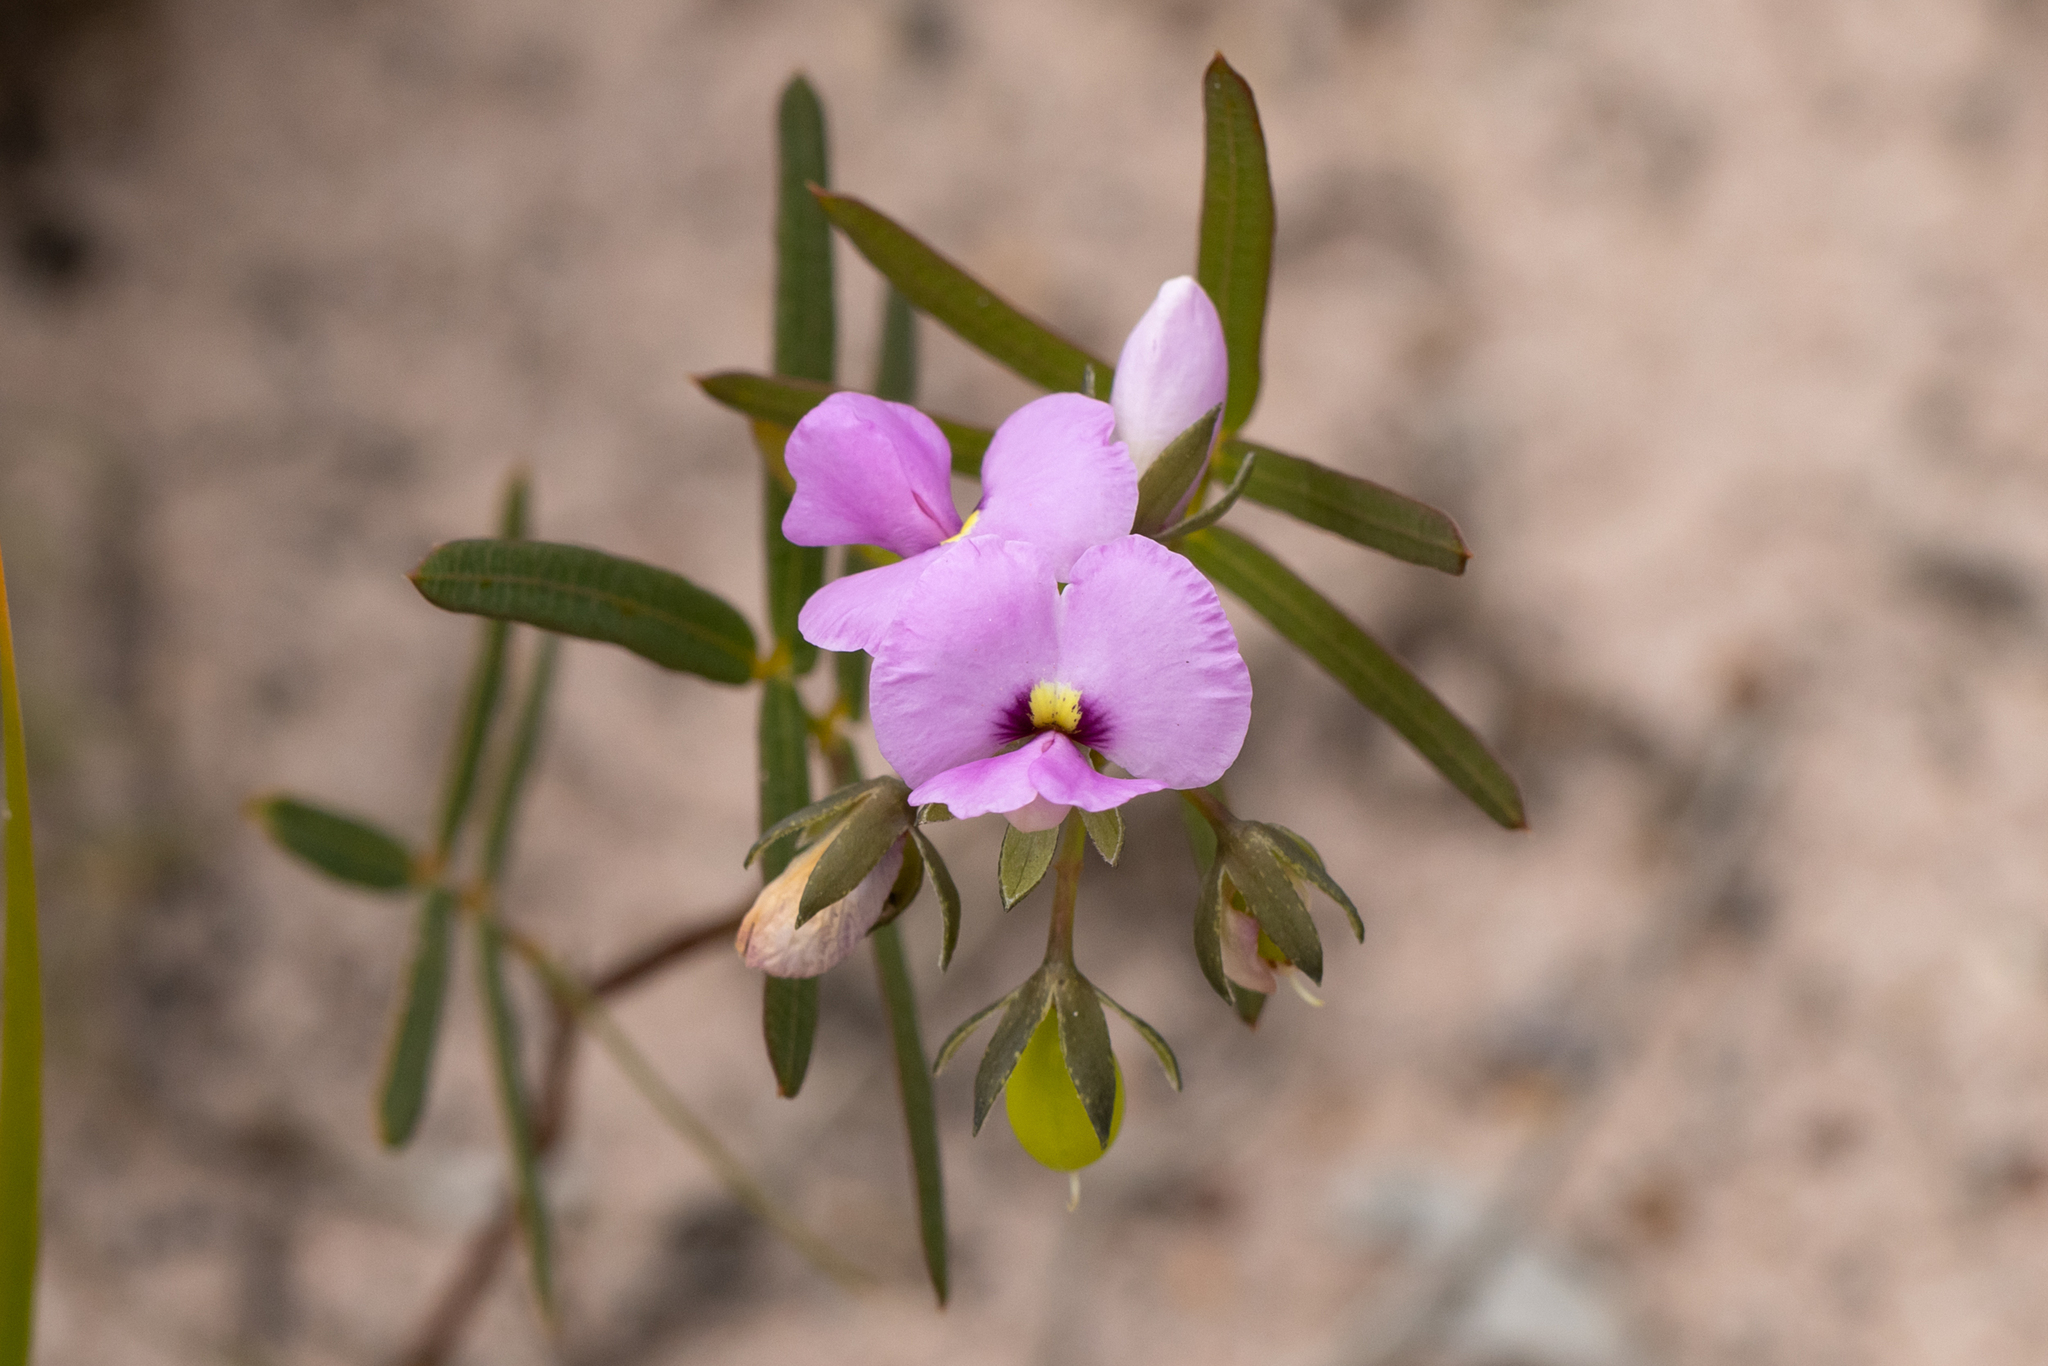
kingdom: Plantae
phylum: Tracheophyta
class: Magnoliopsida
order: Fabales
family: Fabaceae
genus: Gompholobium
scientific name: Gompholobium knightianum
